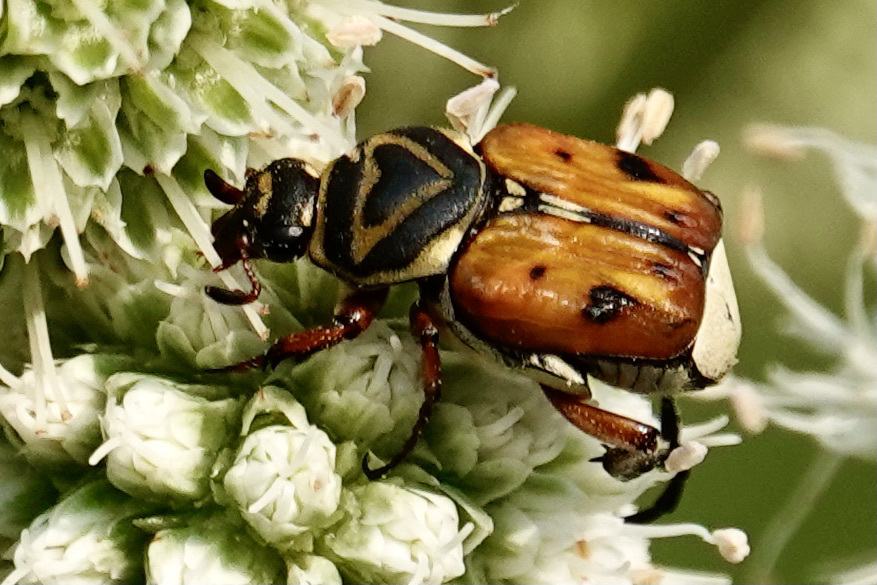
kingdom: Animalia
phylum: Arthropoda
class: Insecta
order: Coleoptera
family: Scarabaeidae
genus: Trigonopeltastes
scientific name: Trigonopeltastes delta
